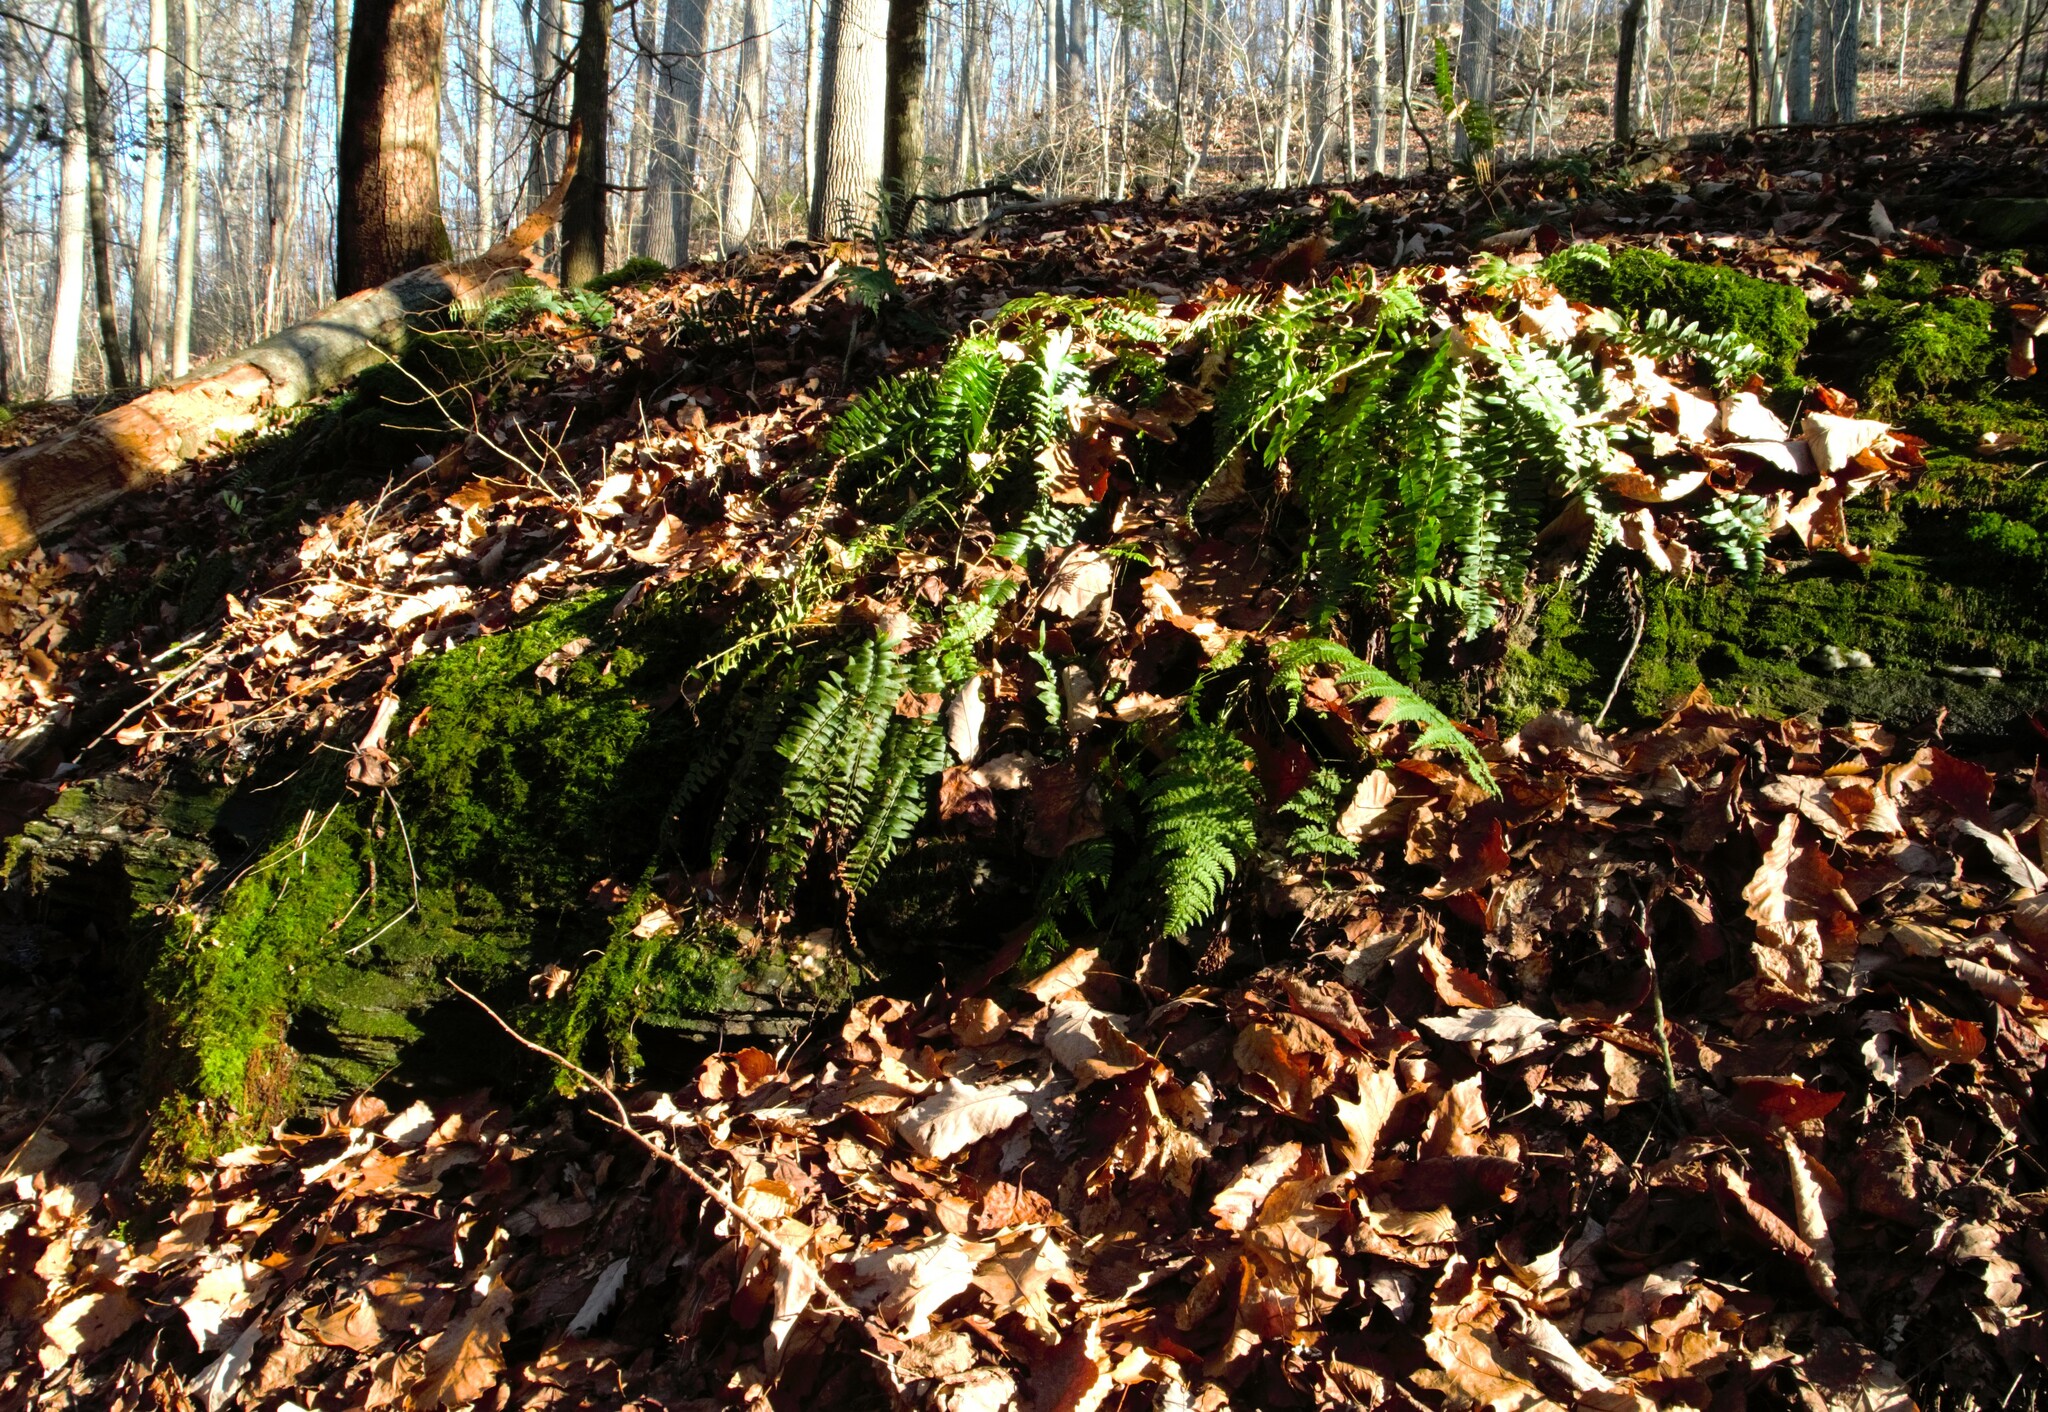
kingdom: Plantae
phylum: Tracheophyta
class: Polypodiopsida
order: Polypodiales
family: Dryopteridaceae
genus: Polystichum
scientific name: Polystichum acrostichoides
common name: Christmas fern
